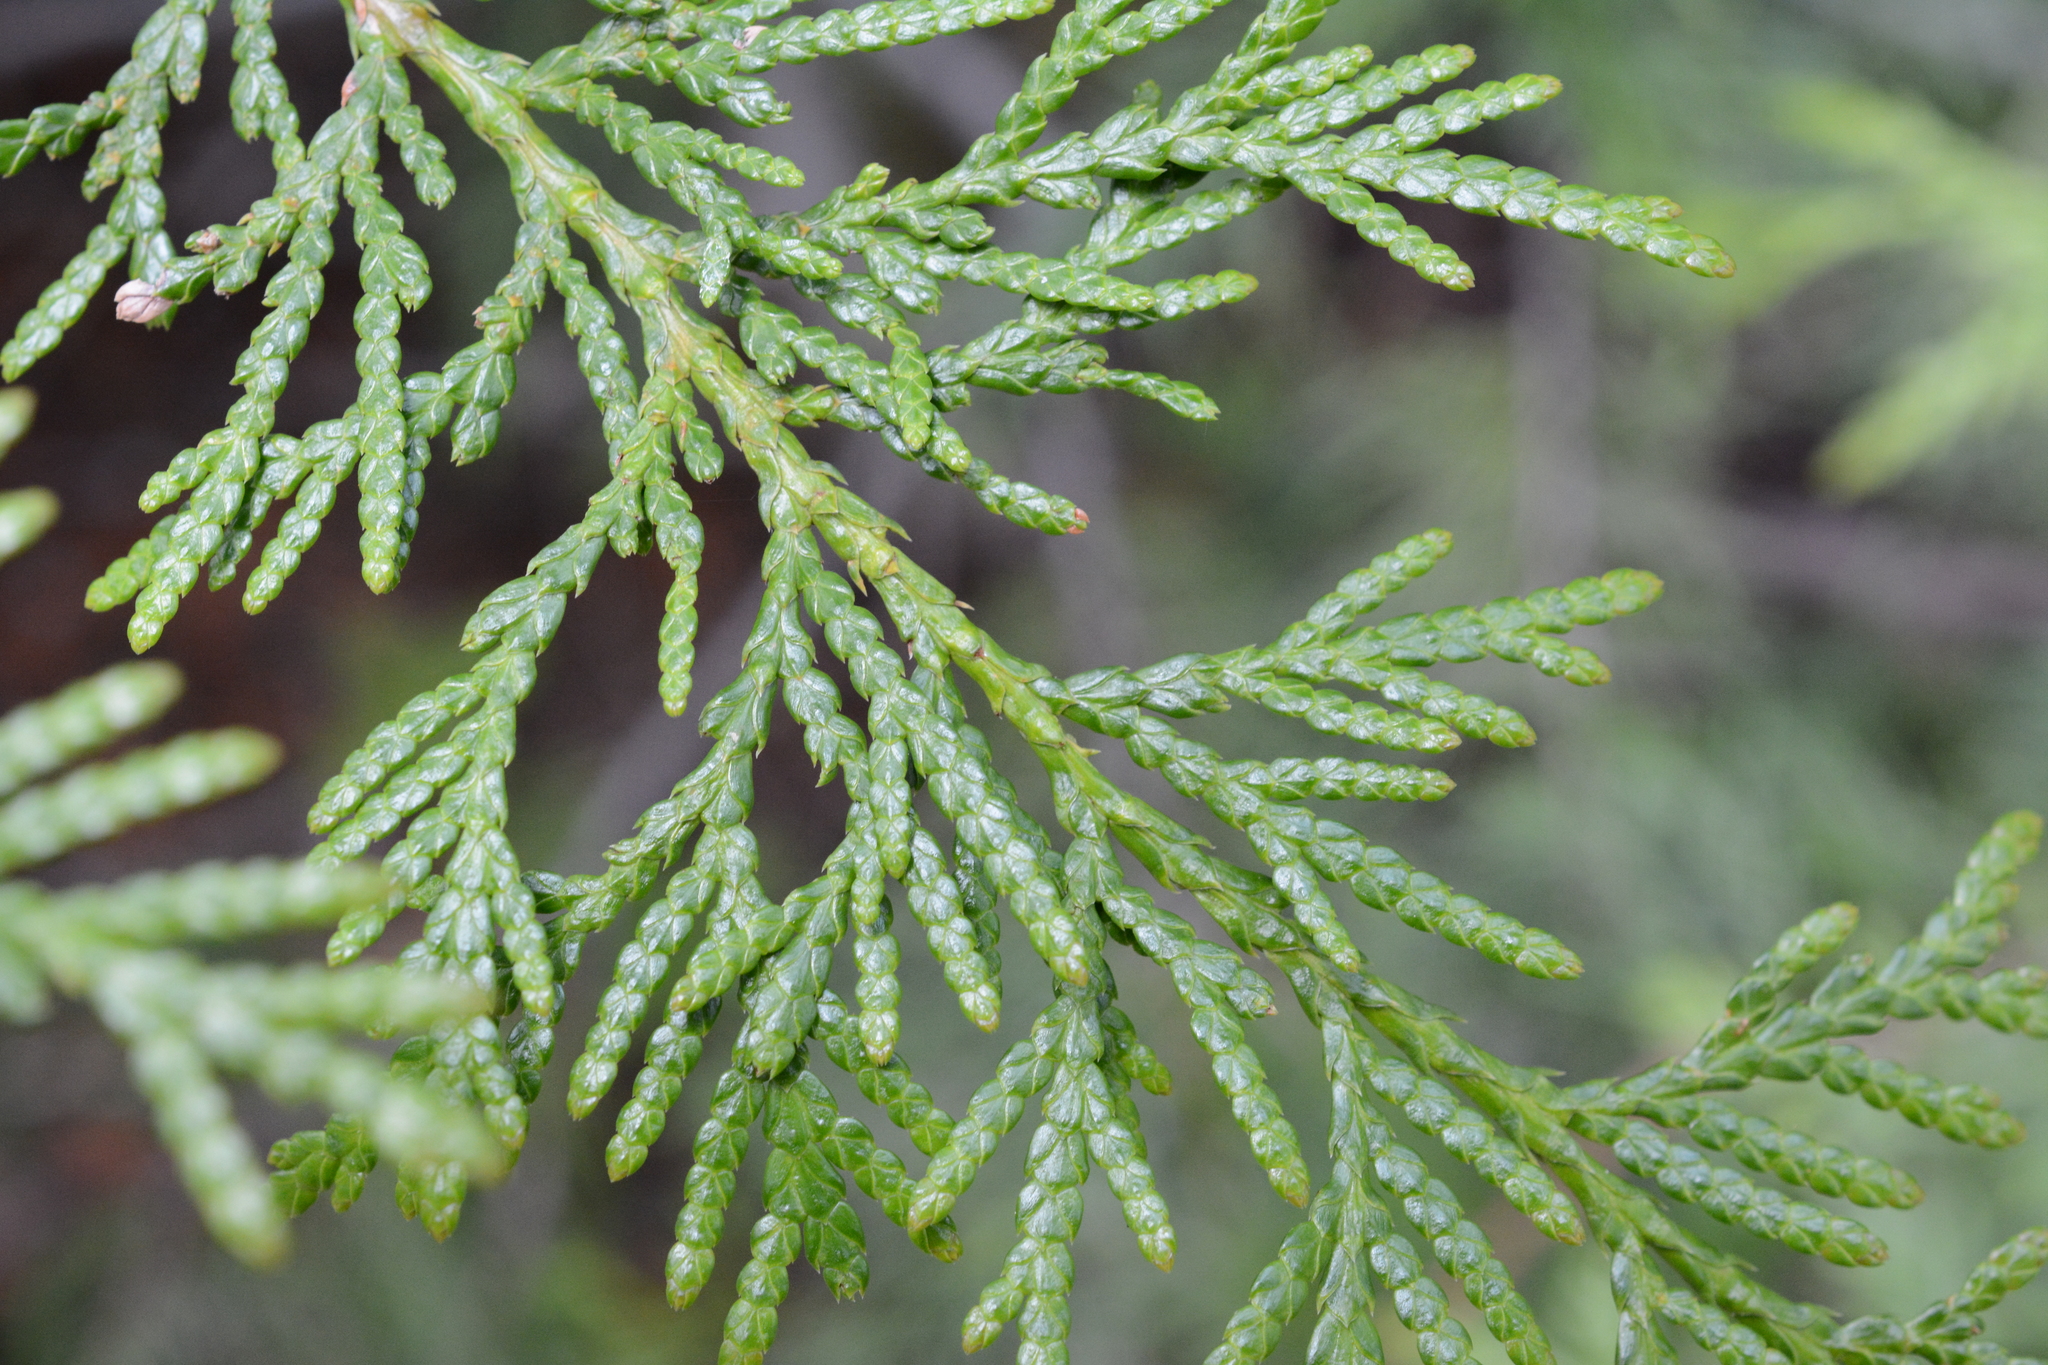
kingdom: Plantae
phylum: Tracheophyta
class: Pinopsida
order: Pinales
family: Cupressaceae
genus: Thuja
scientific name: Thuja plicata
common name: Western red-cedar
